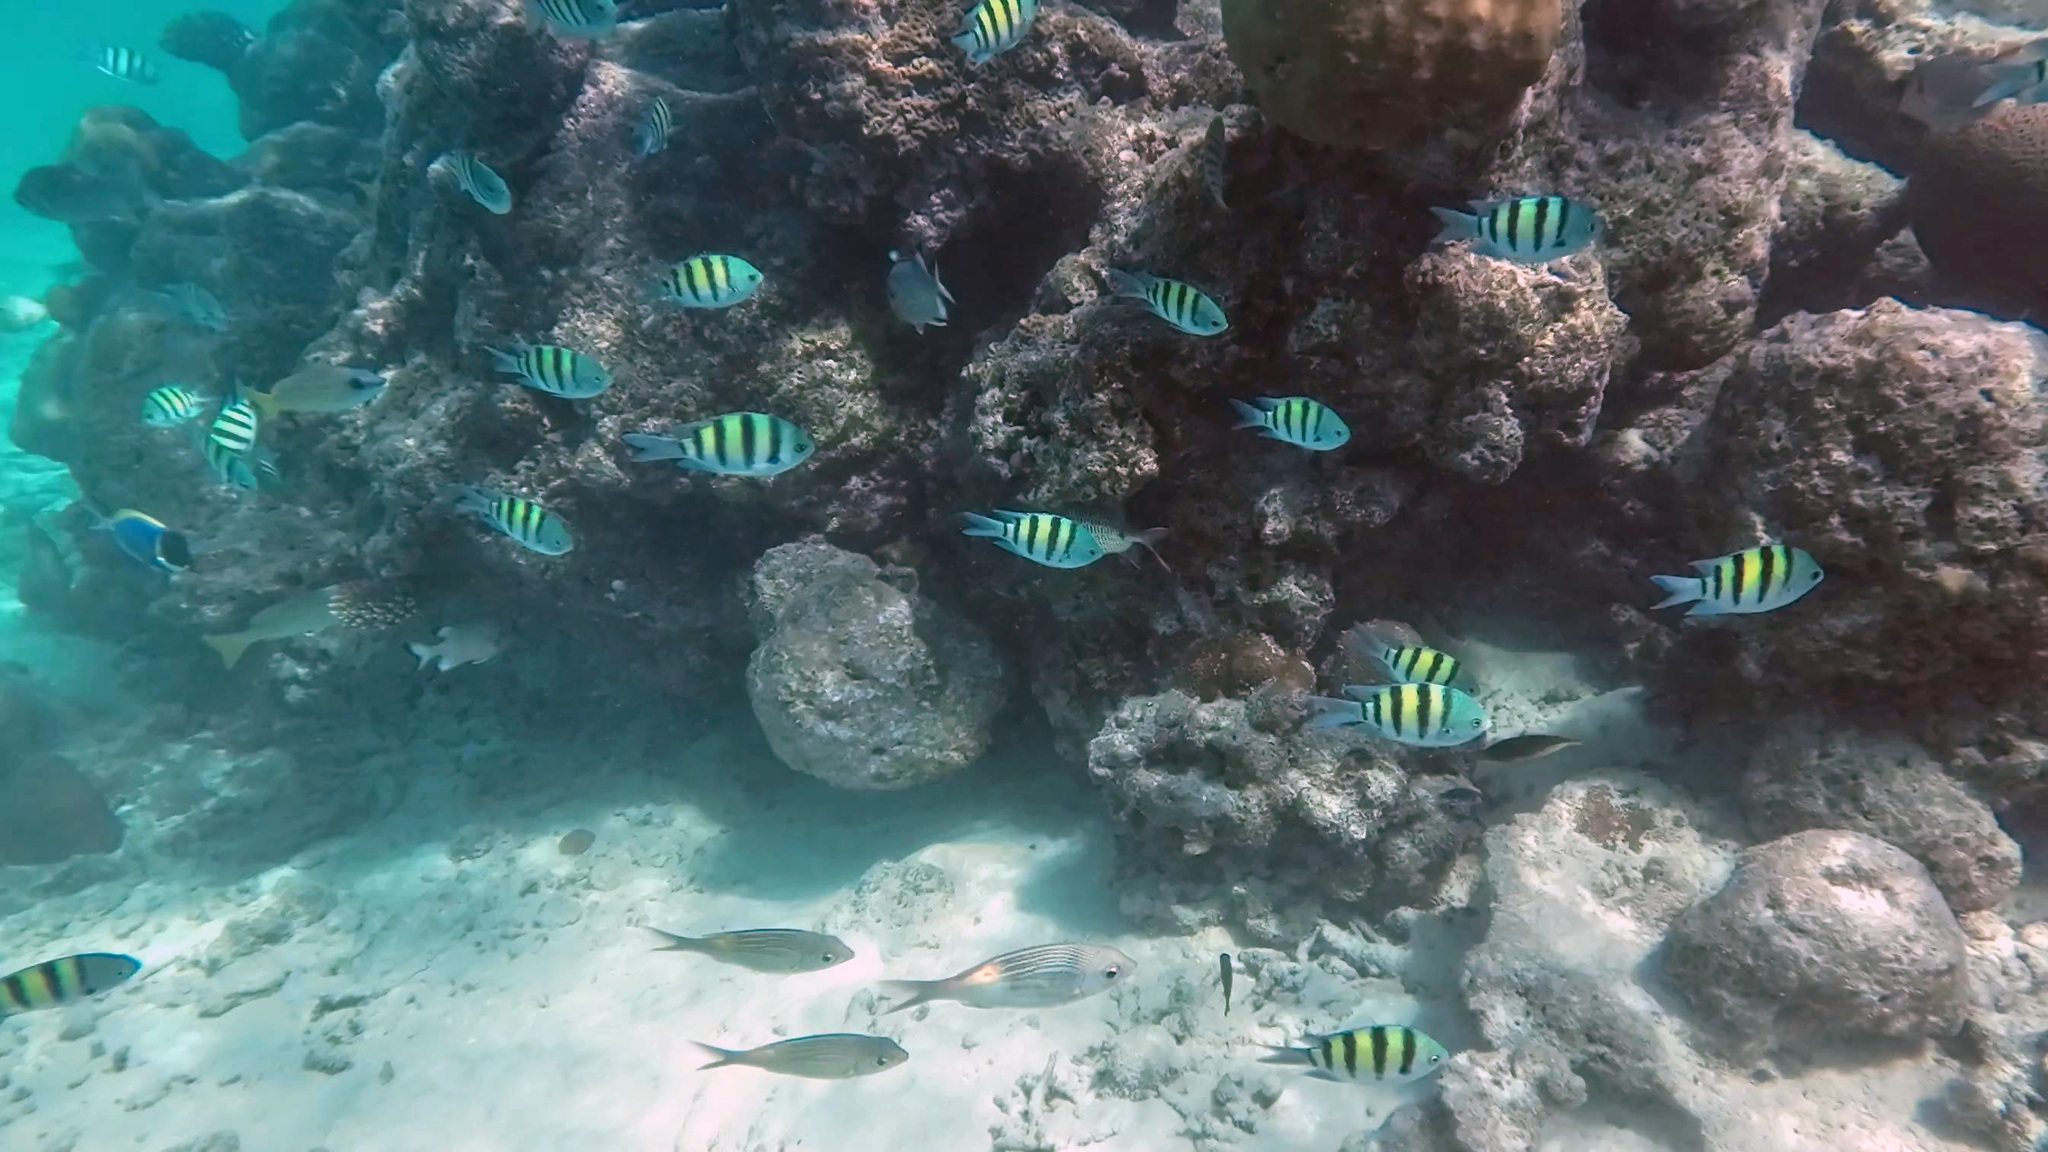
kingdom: Animalia
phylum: Chordata
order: Perciformes
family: Pomacentridae
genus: Abudefduf
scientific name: Abudefduf vaigiensis
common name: Indo-pacific sergeant
